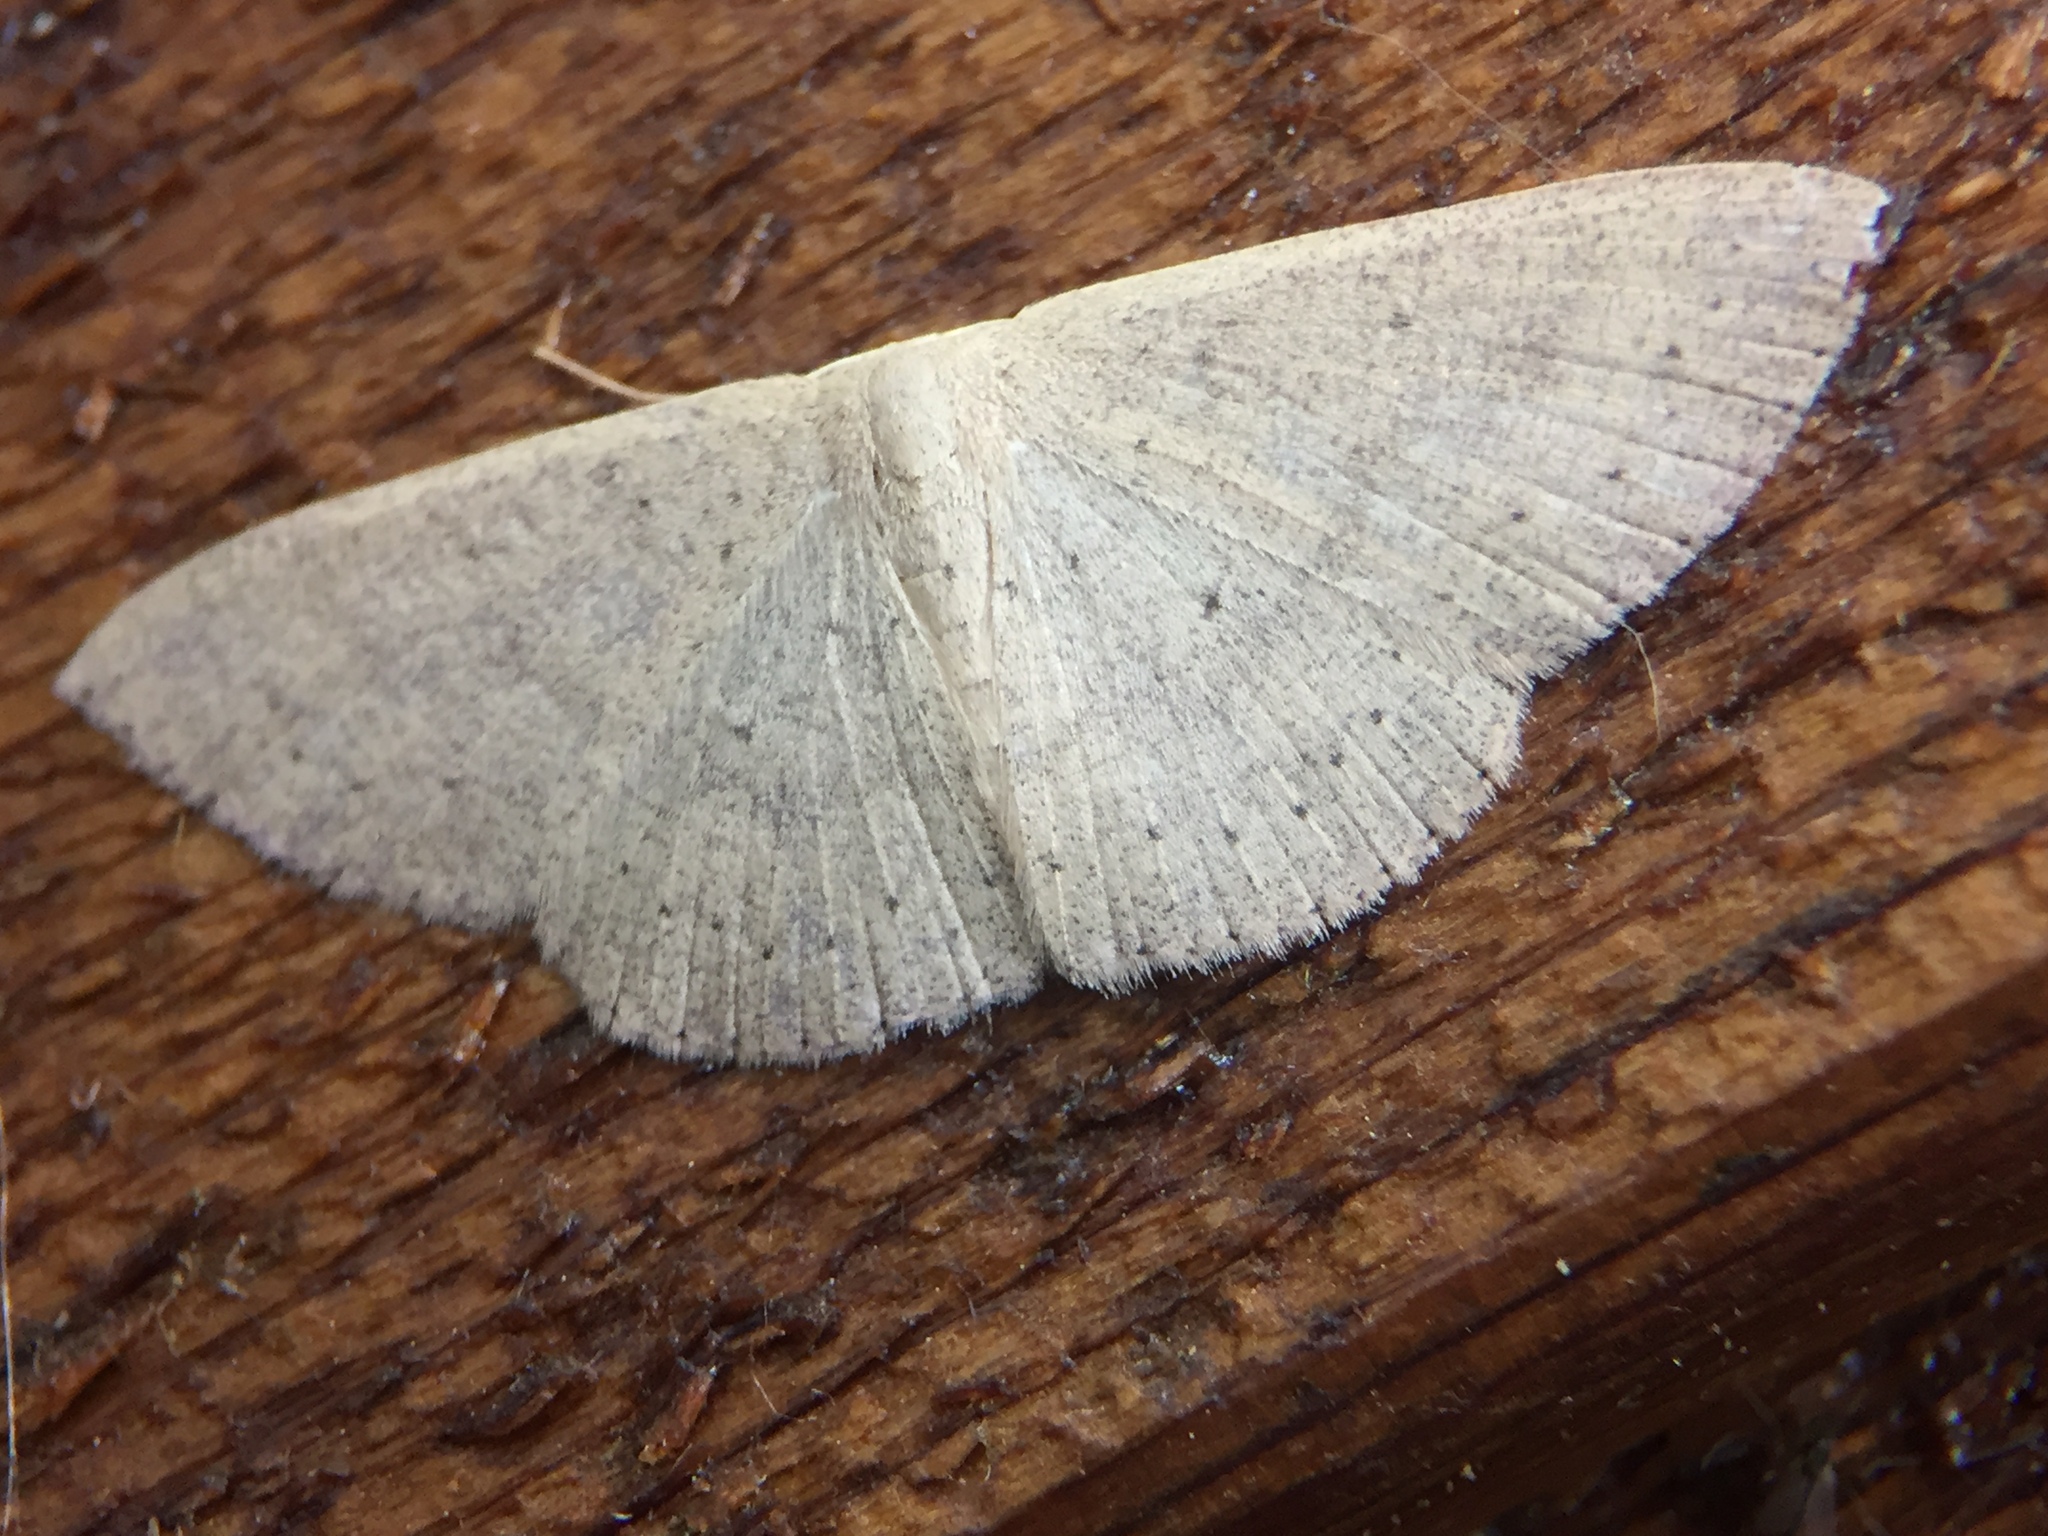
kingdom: Animalia
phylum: Arthropoda
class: Insecta
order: Lepidoptera
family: Geometridae
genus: Cyclophora
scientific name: Cyclophora obstataria
